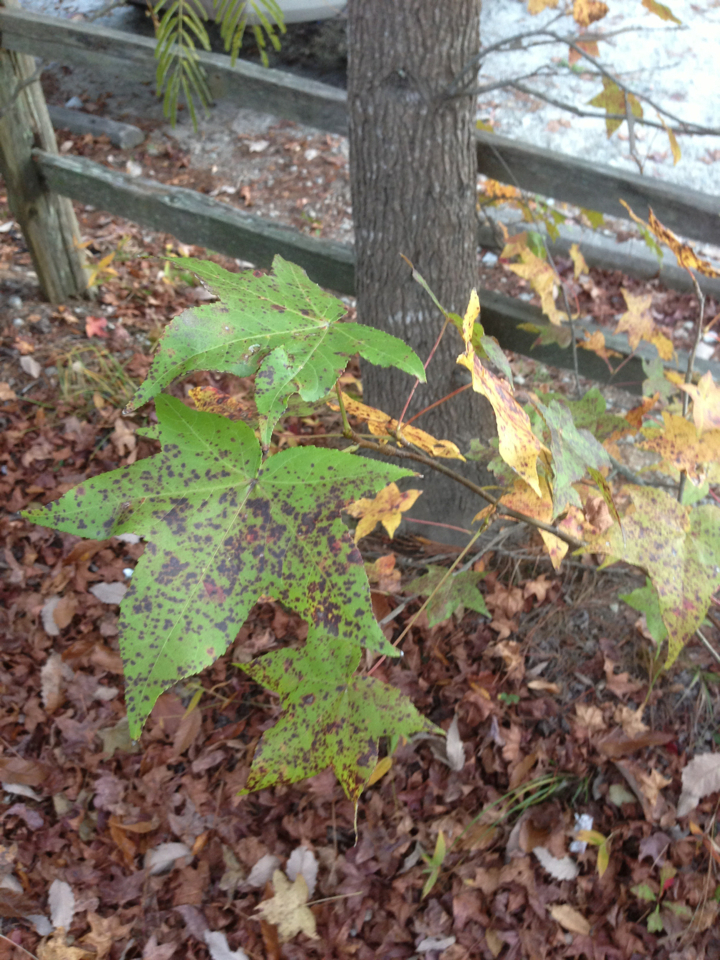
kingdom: Plantae
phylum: Tracheophyta
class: Magnoliopsida
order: Saxifragales
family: Altingiaceae
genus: Liquidambar
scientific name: Liquidambar styraciflua
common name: Sweet gum
